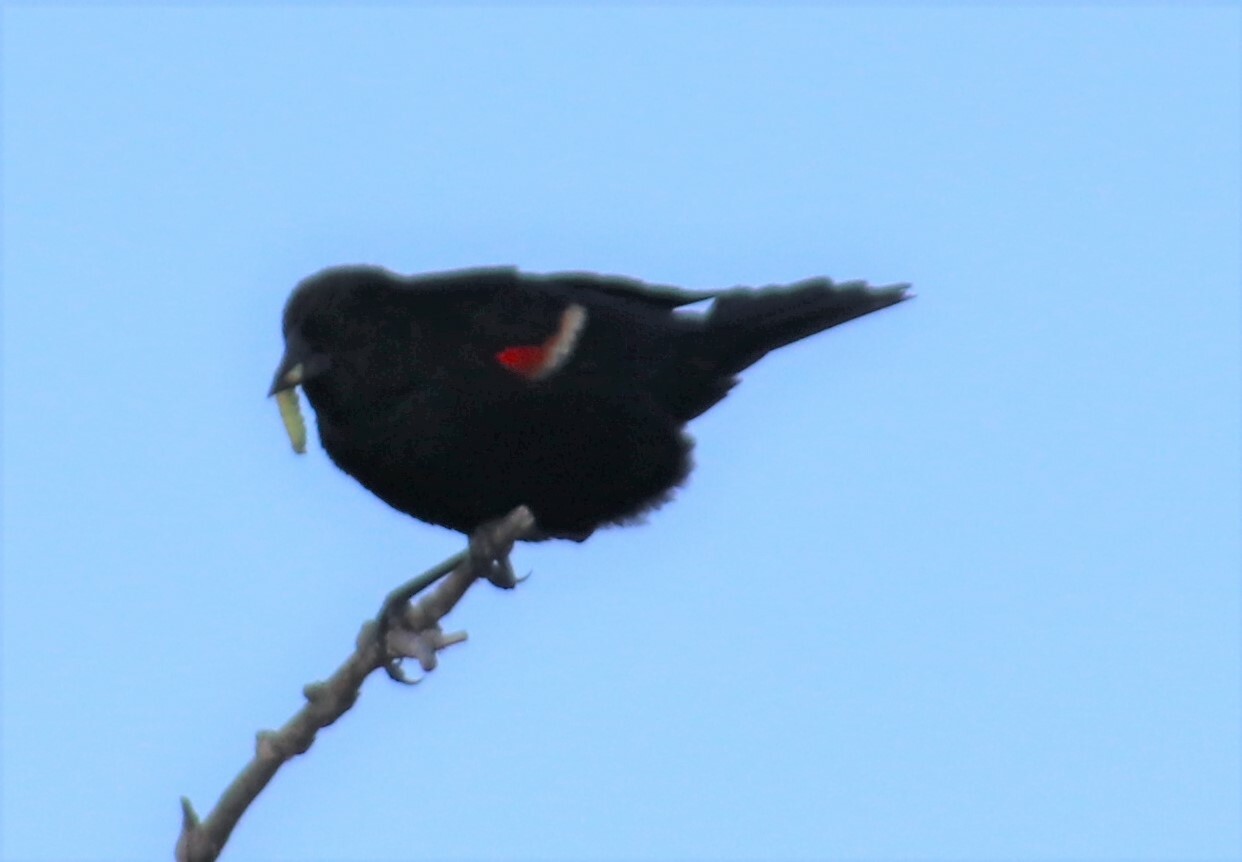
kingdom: Animalia
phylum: Chordata
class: Aves
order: Passeriformes
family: Icteridae
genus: Agelaius
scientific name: Agelaius phoeniceus
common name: Red-winged blackbird
